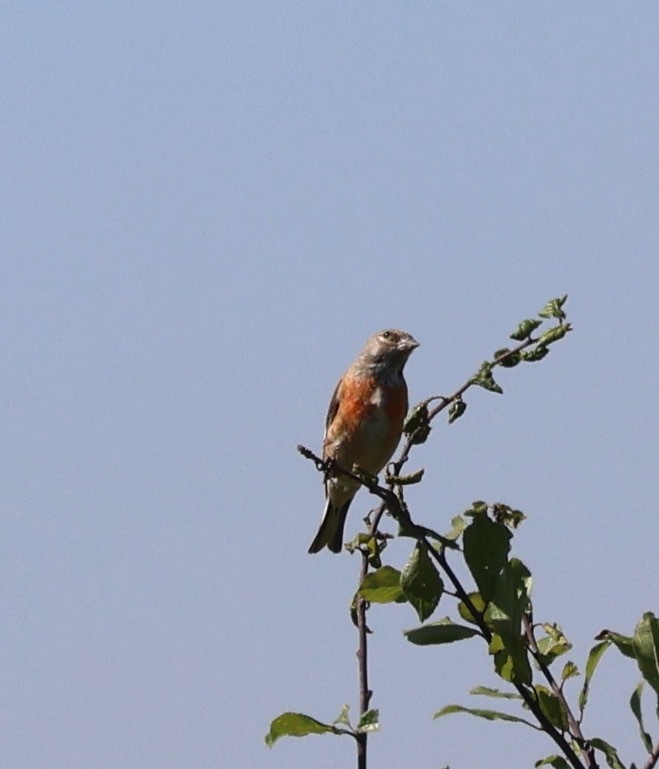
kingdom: Animalia
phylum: Chordata
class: Aves
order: Passeriformes
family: Fringillidae
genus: Linaria
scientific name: Linaria cannabina
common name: Common linnet
